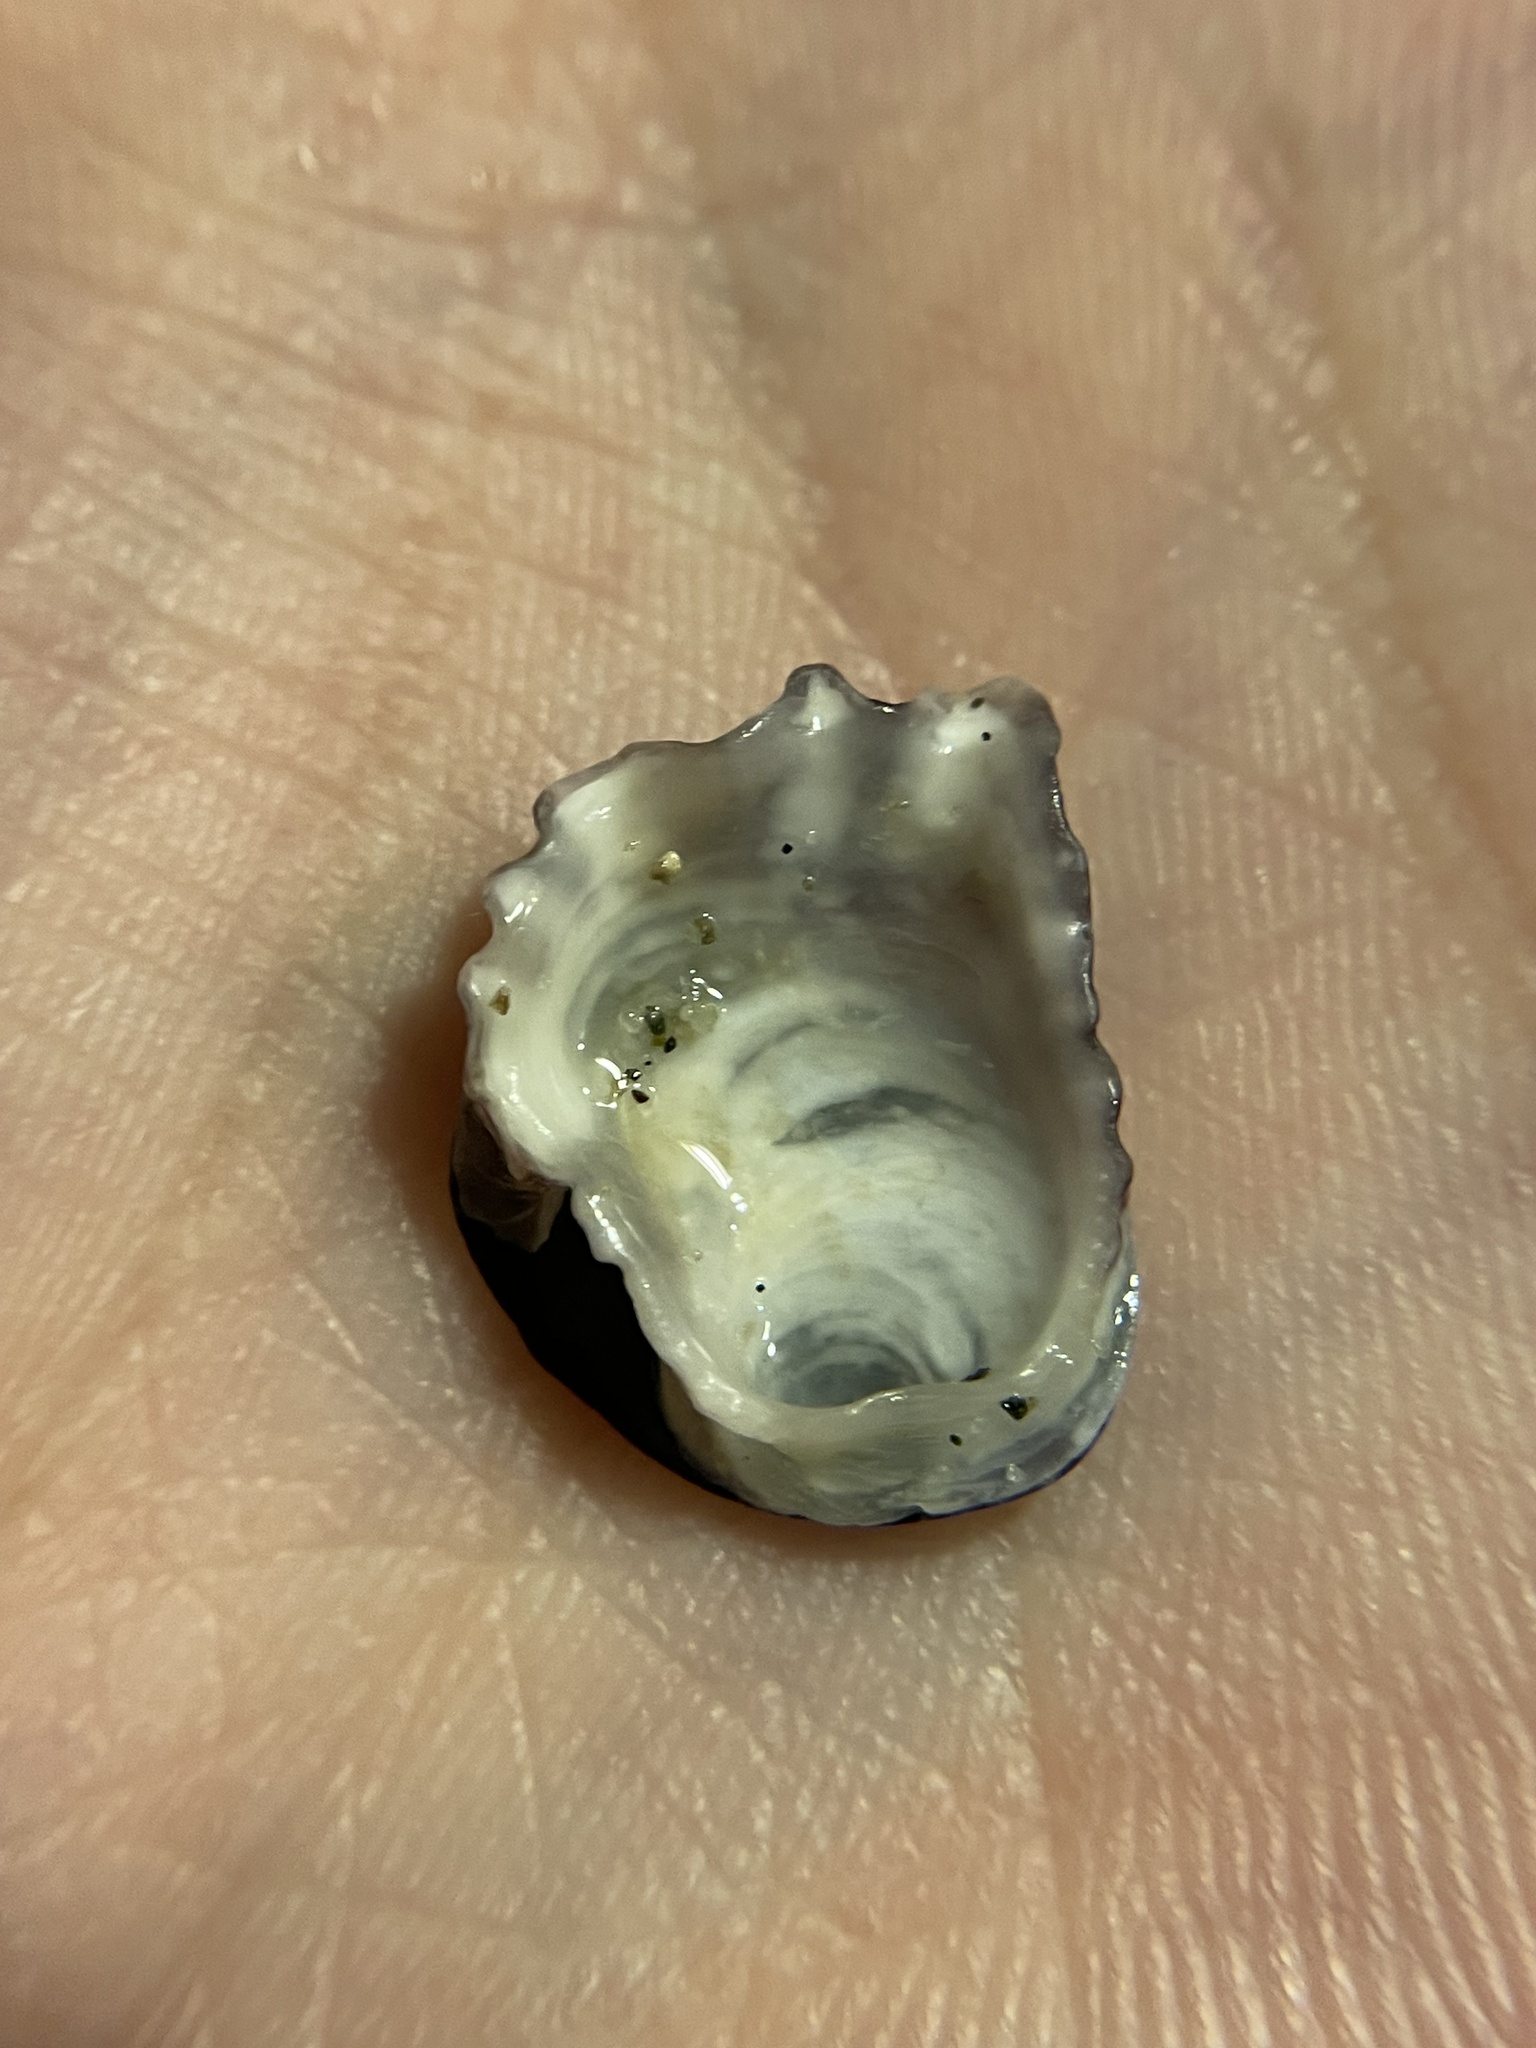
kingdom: Animalia
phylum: Mollusca
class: Bivalvia
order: Ostreida
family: Ostreidae
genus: Magallana
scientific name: Magallana gigas
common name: Pacific oyster
